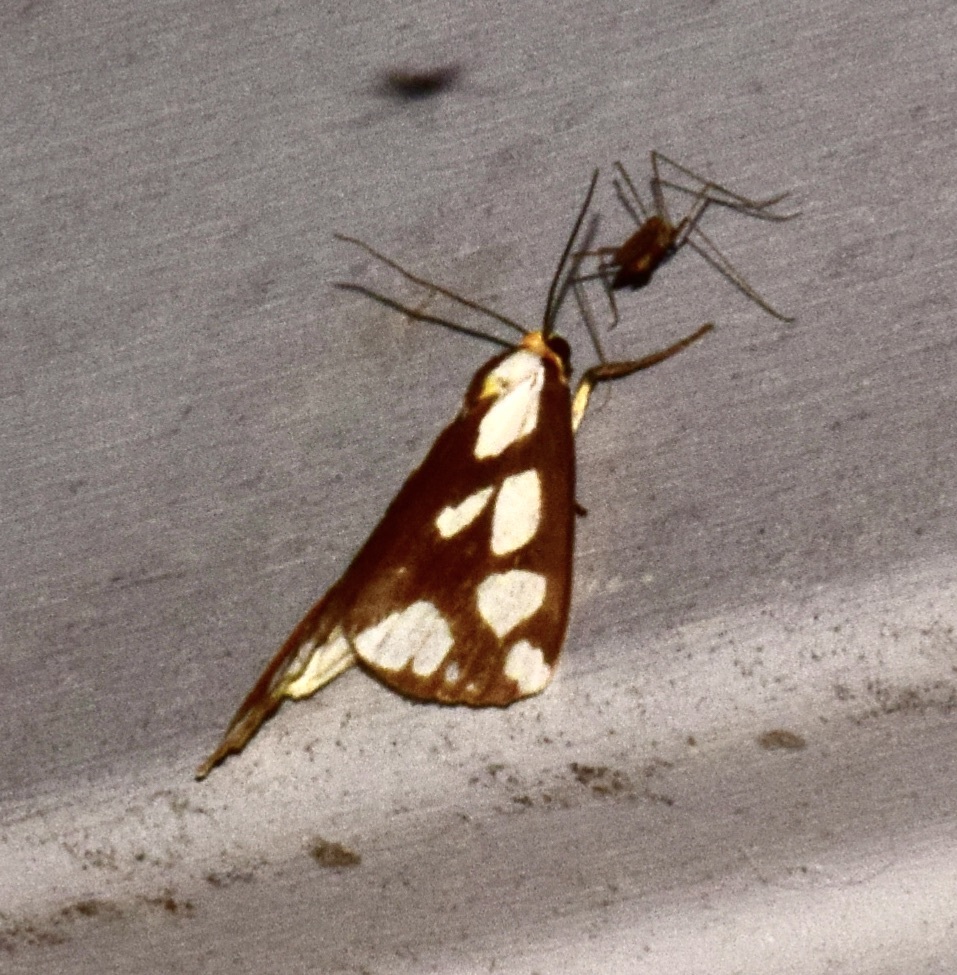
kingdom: Animalia
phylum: Arthropoda
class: Insecta
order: Lepidoptera
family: Erebidae
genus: Haploa
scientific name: Haploa confusa
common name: Confused haploa moth
